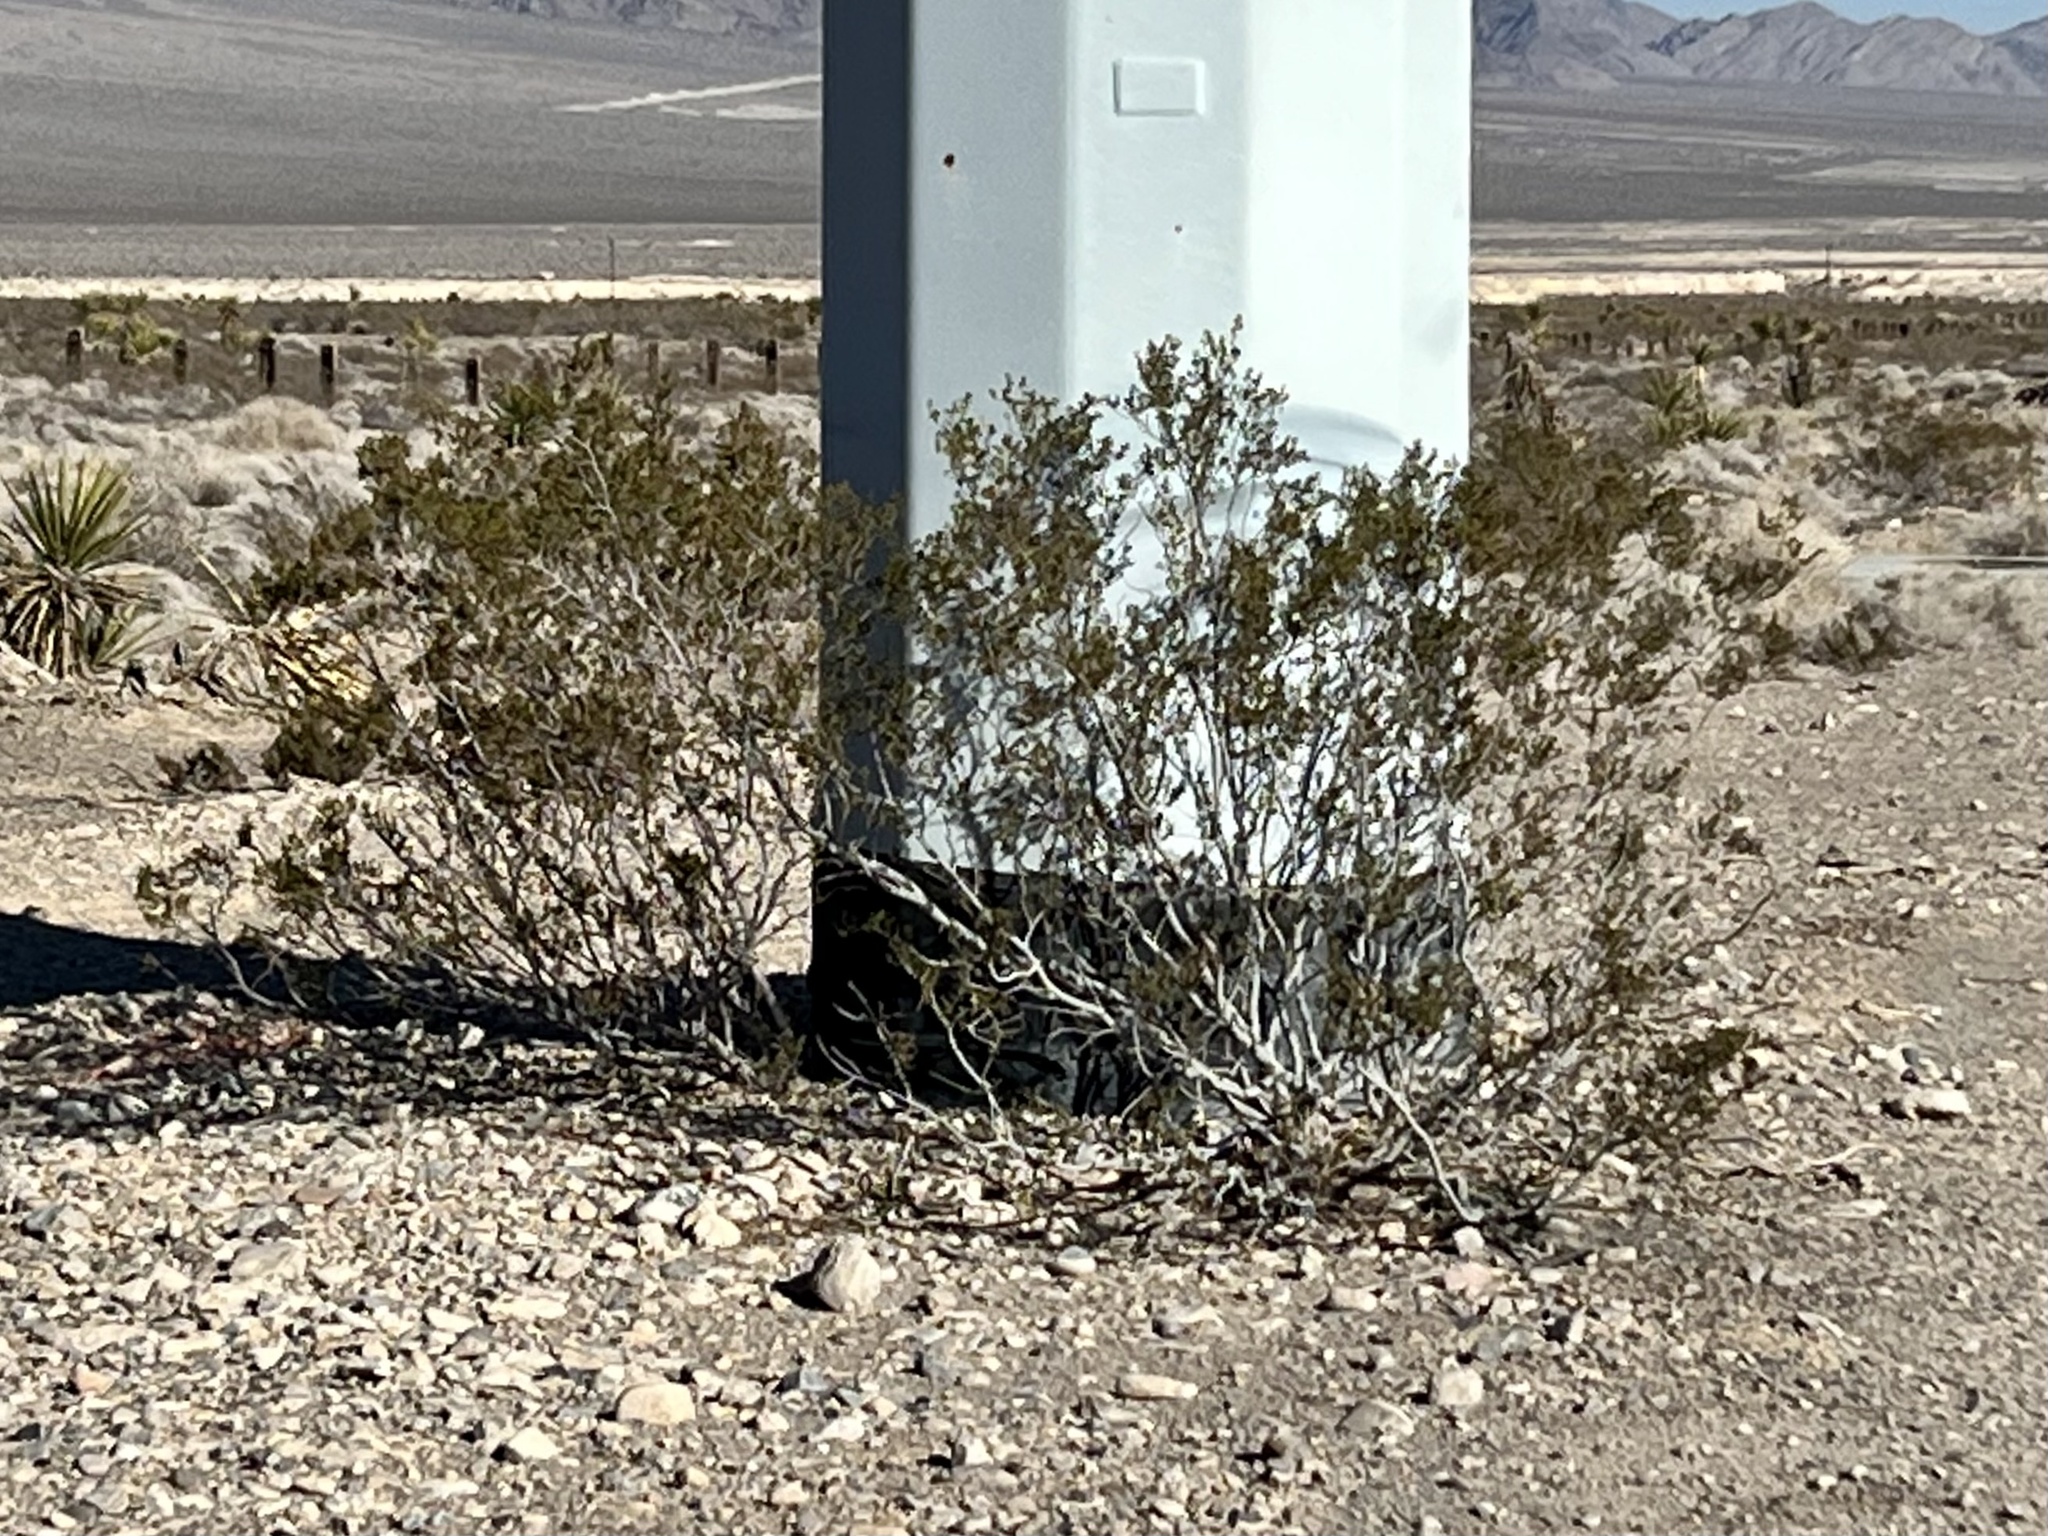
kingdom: Plantae
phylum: Tracheophyta
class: Magnoliopsida
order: Zygophyllales
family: Zygophyllaceae
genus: Larrea
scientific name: Larrea tridentata
